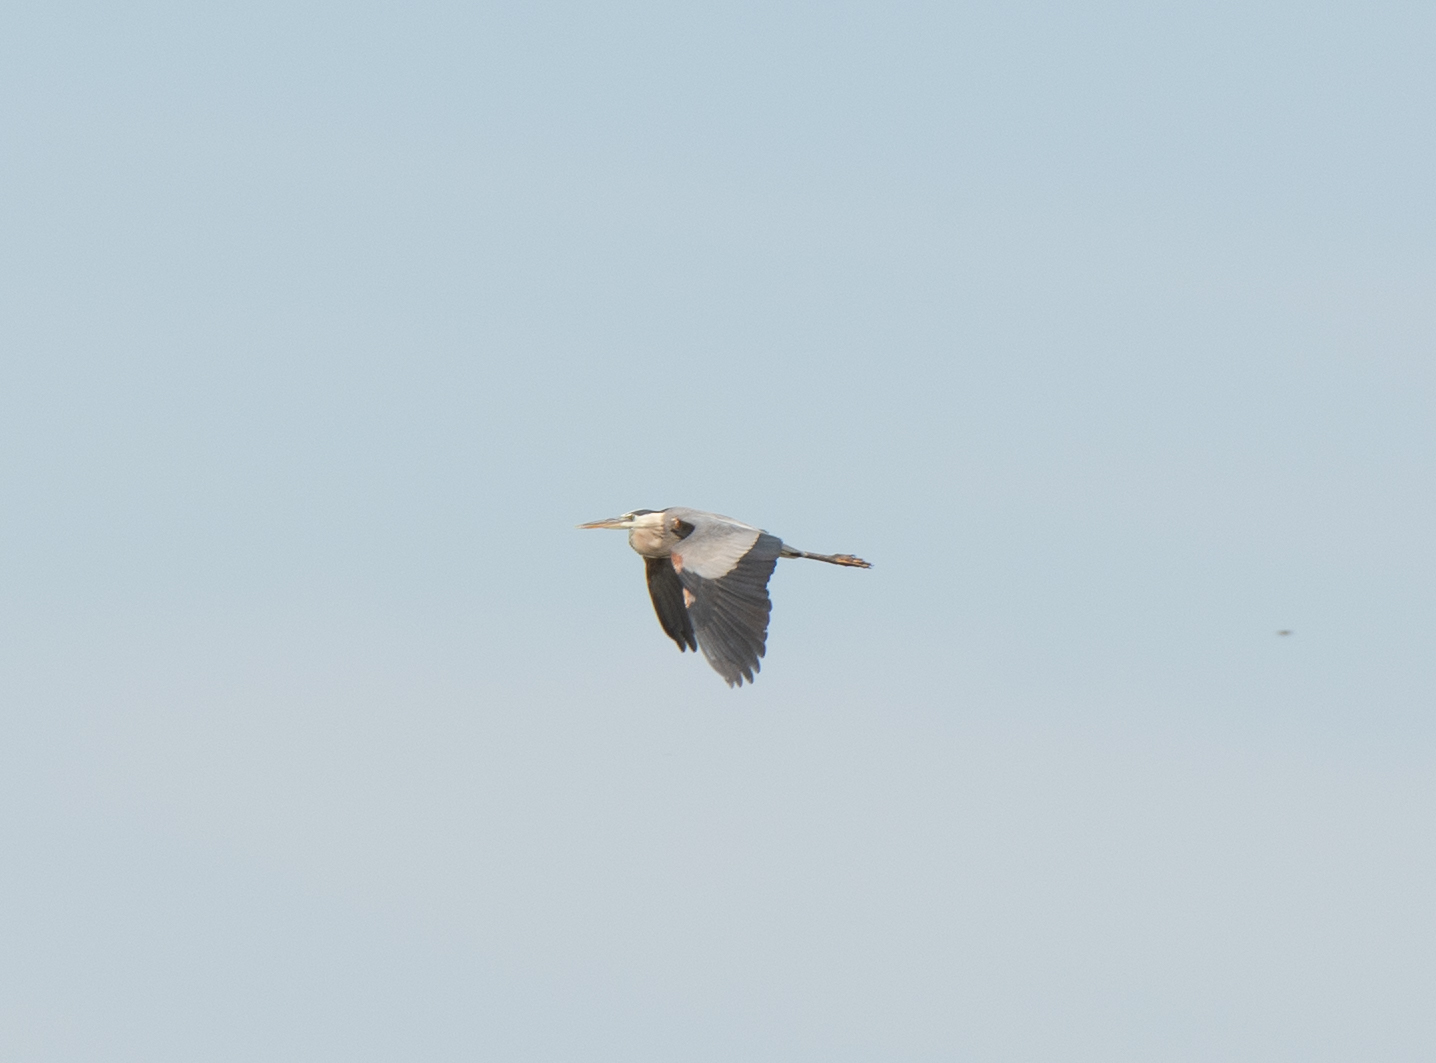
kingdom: Animalia
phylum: Chordata
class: Aves
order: Pelecaniformes
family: Ardeidae
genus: Ardea
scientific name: Ardea herodias
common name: Great blue heron
